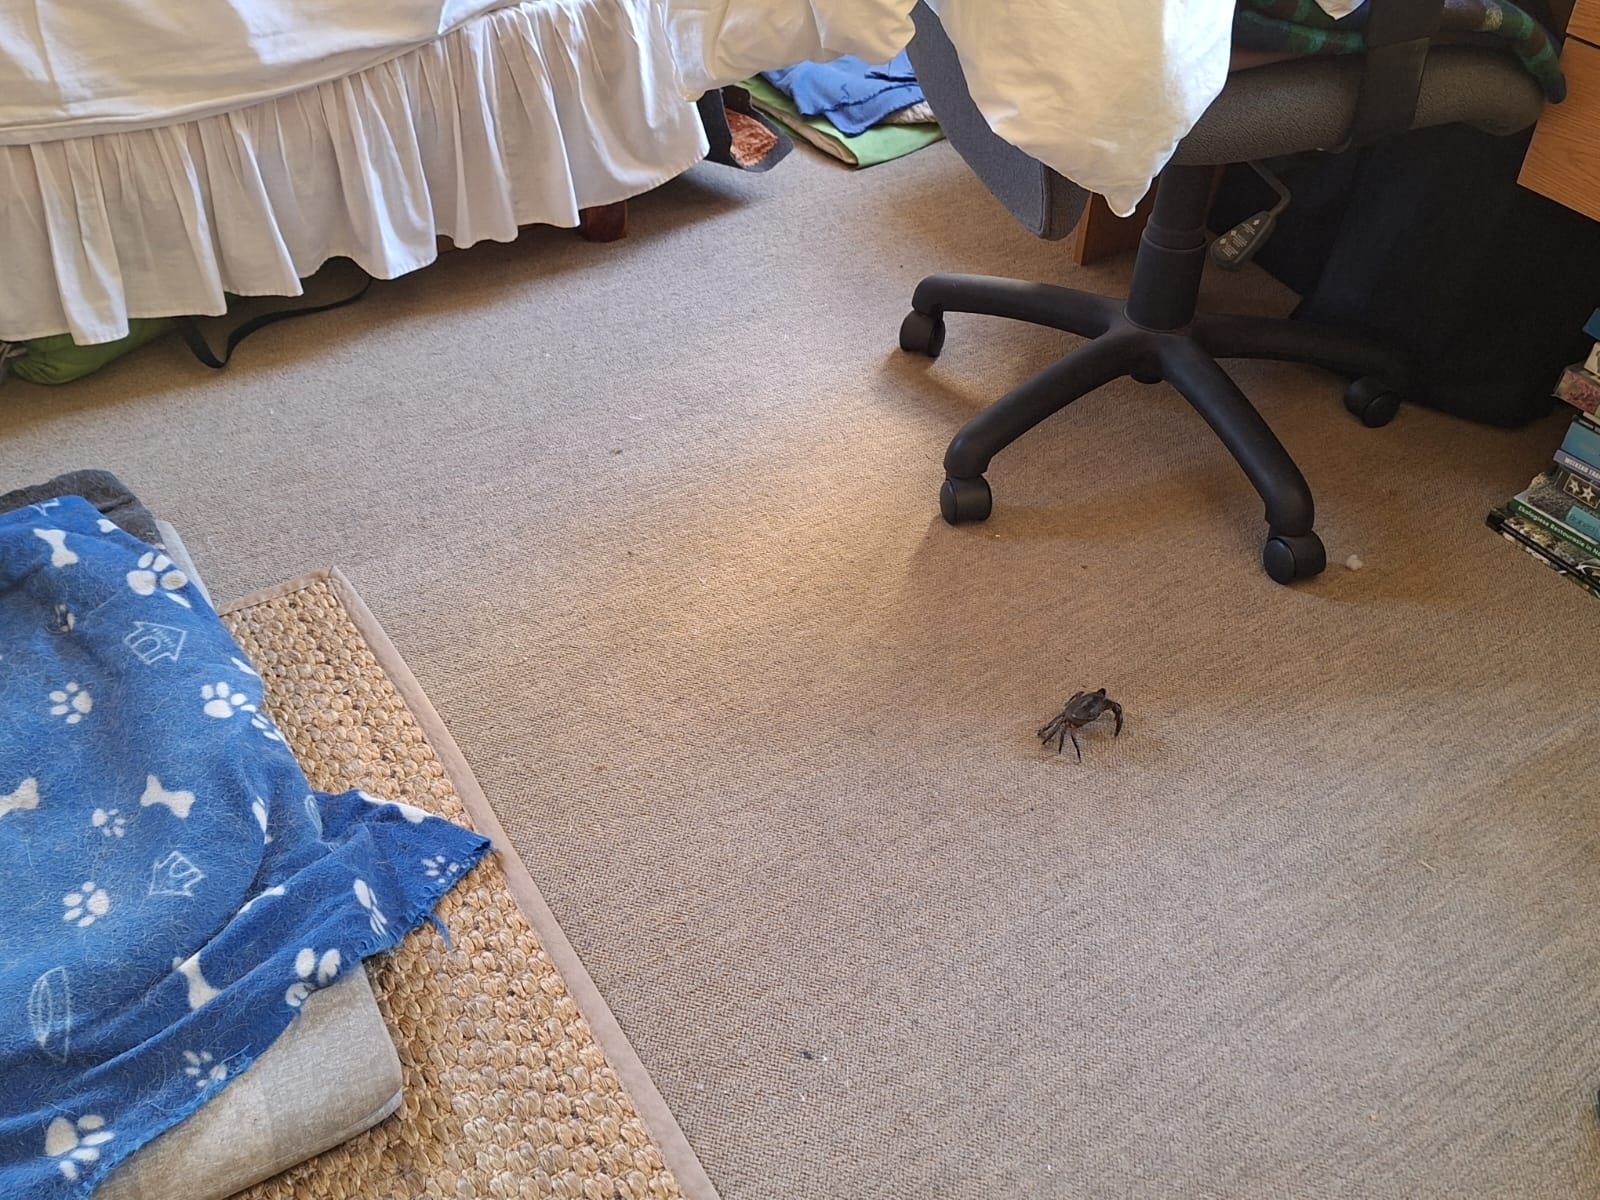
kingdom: Animalia
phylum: Arthropoda
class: Malacostraca
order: Decapoda
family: Potamonautidae
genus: Potamonautes
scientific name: Potamonautes perlatus
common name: Cape river crab
